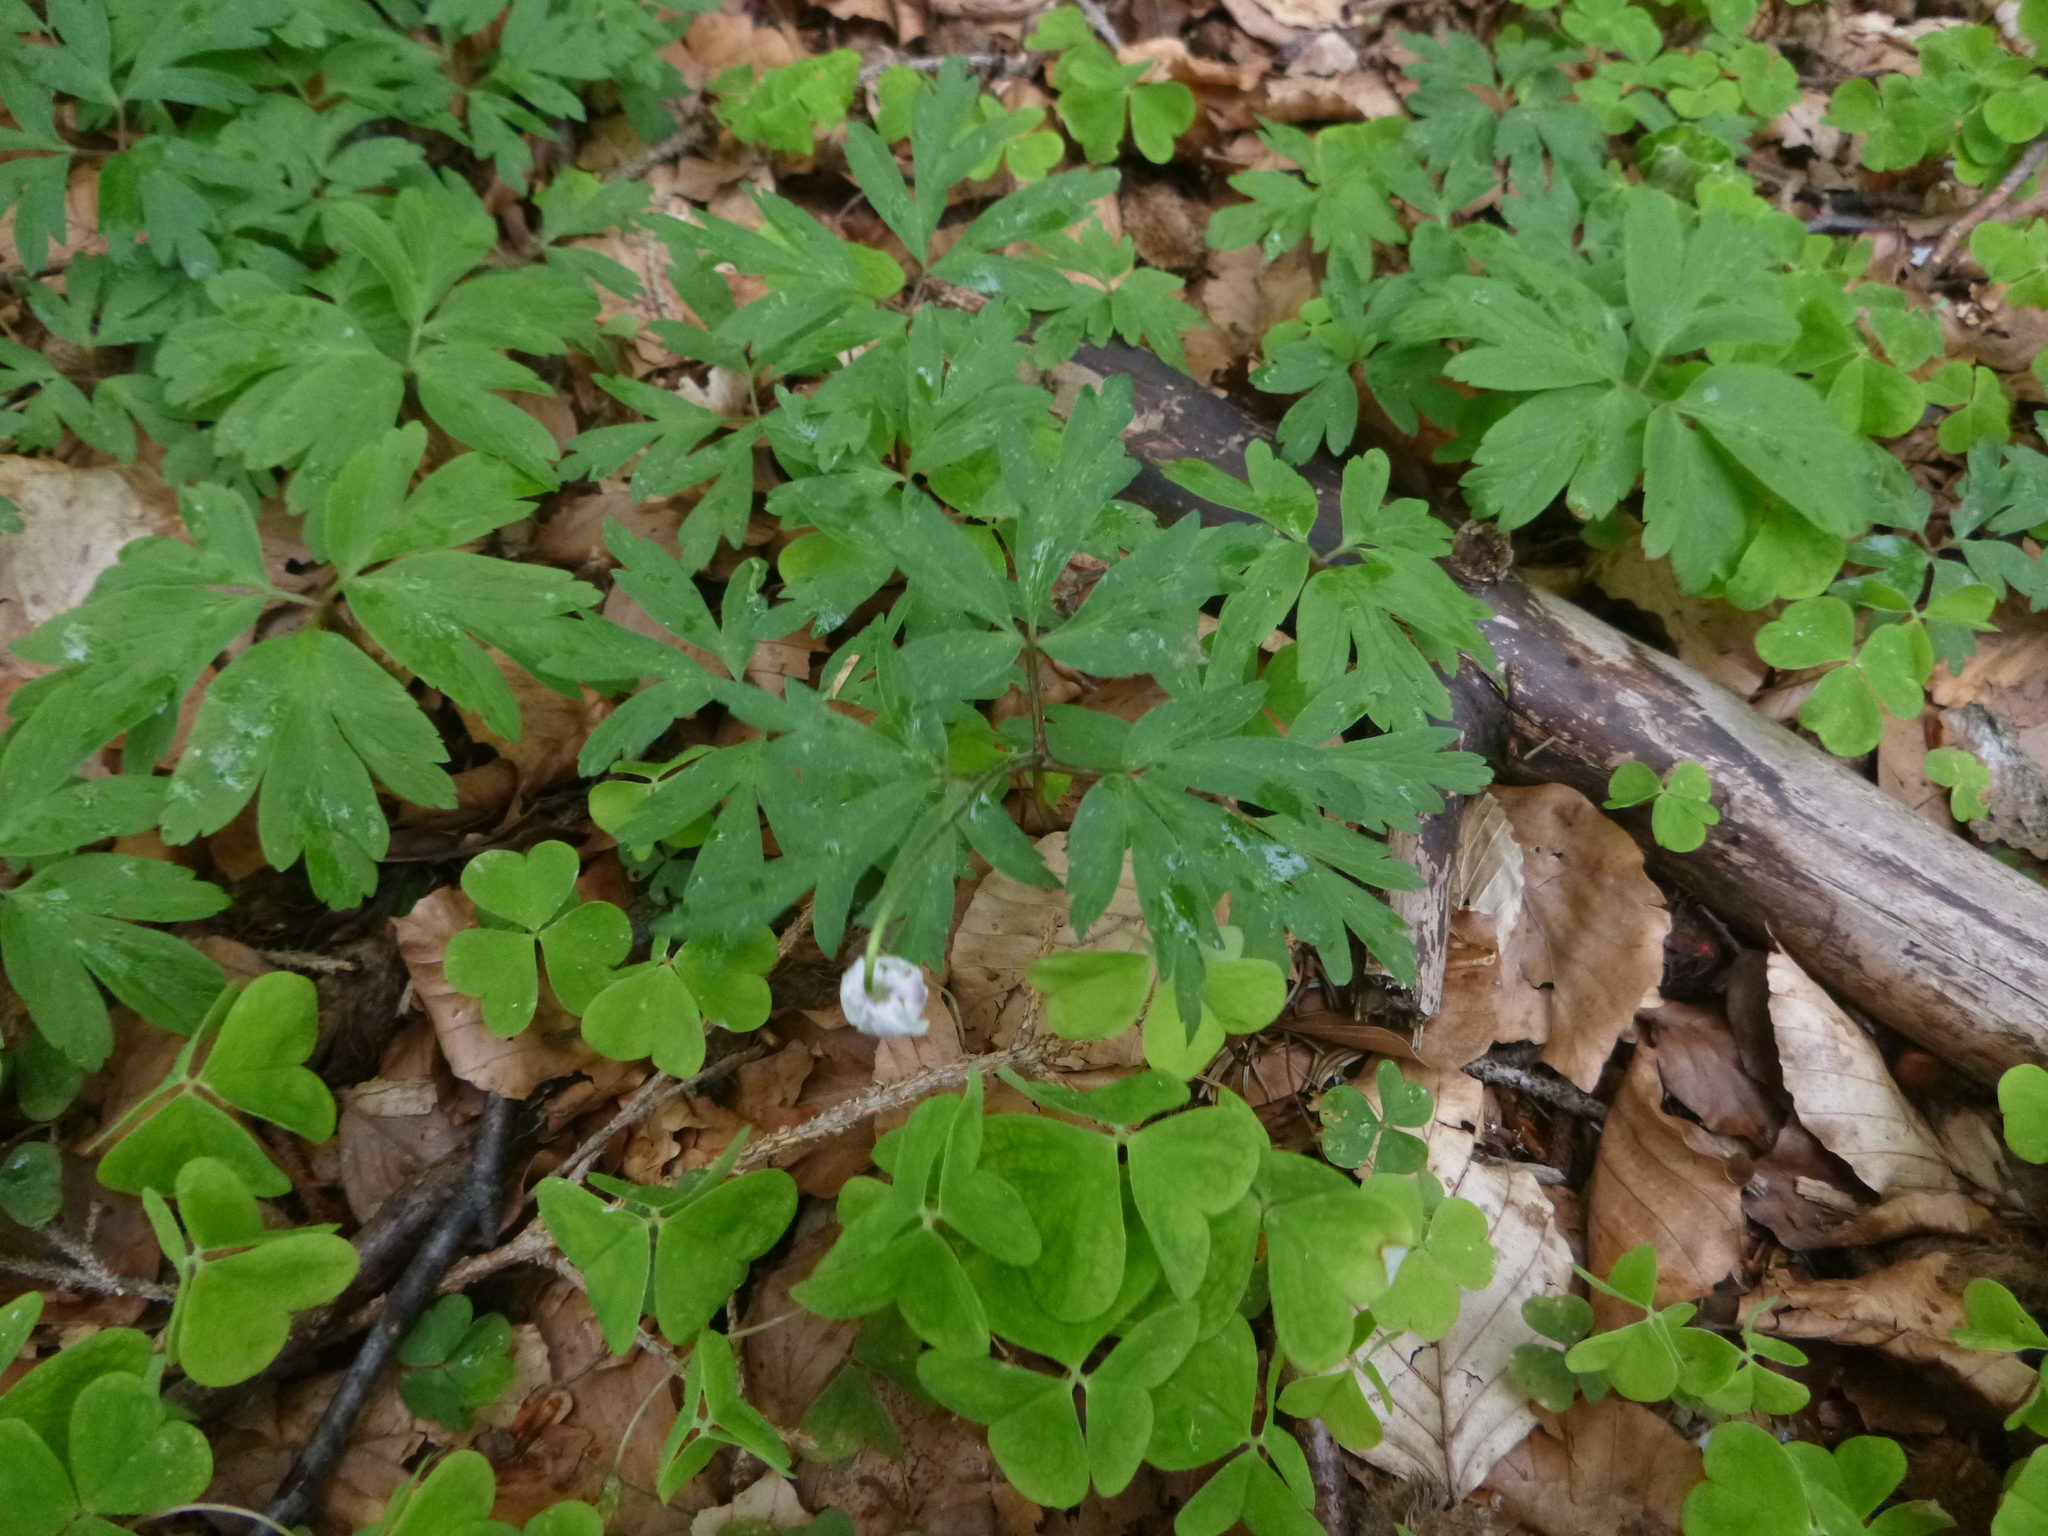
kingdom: Plantae
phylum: Tracheophyta
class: Magnoliopsida
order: Ranunculales
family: Ranunculaceae
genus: Anemone
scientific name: Anemone nemorosa
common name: Wood anemone
